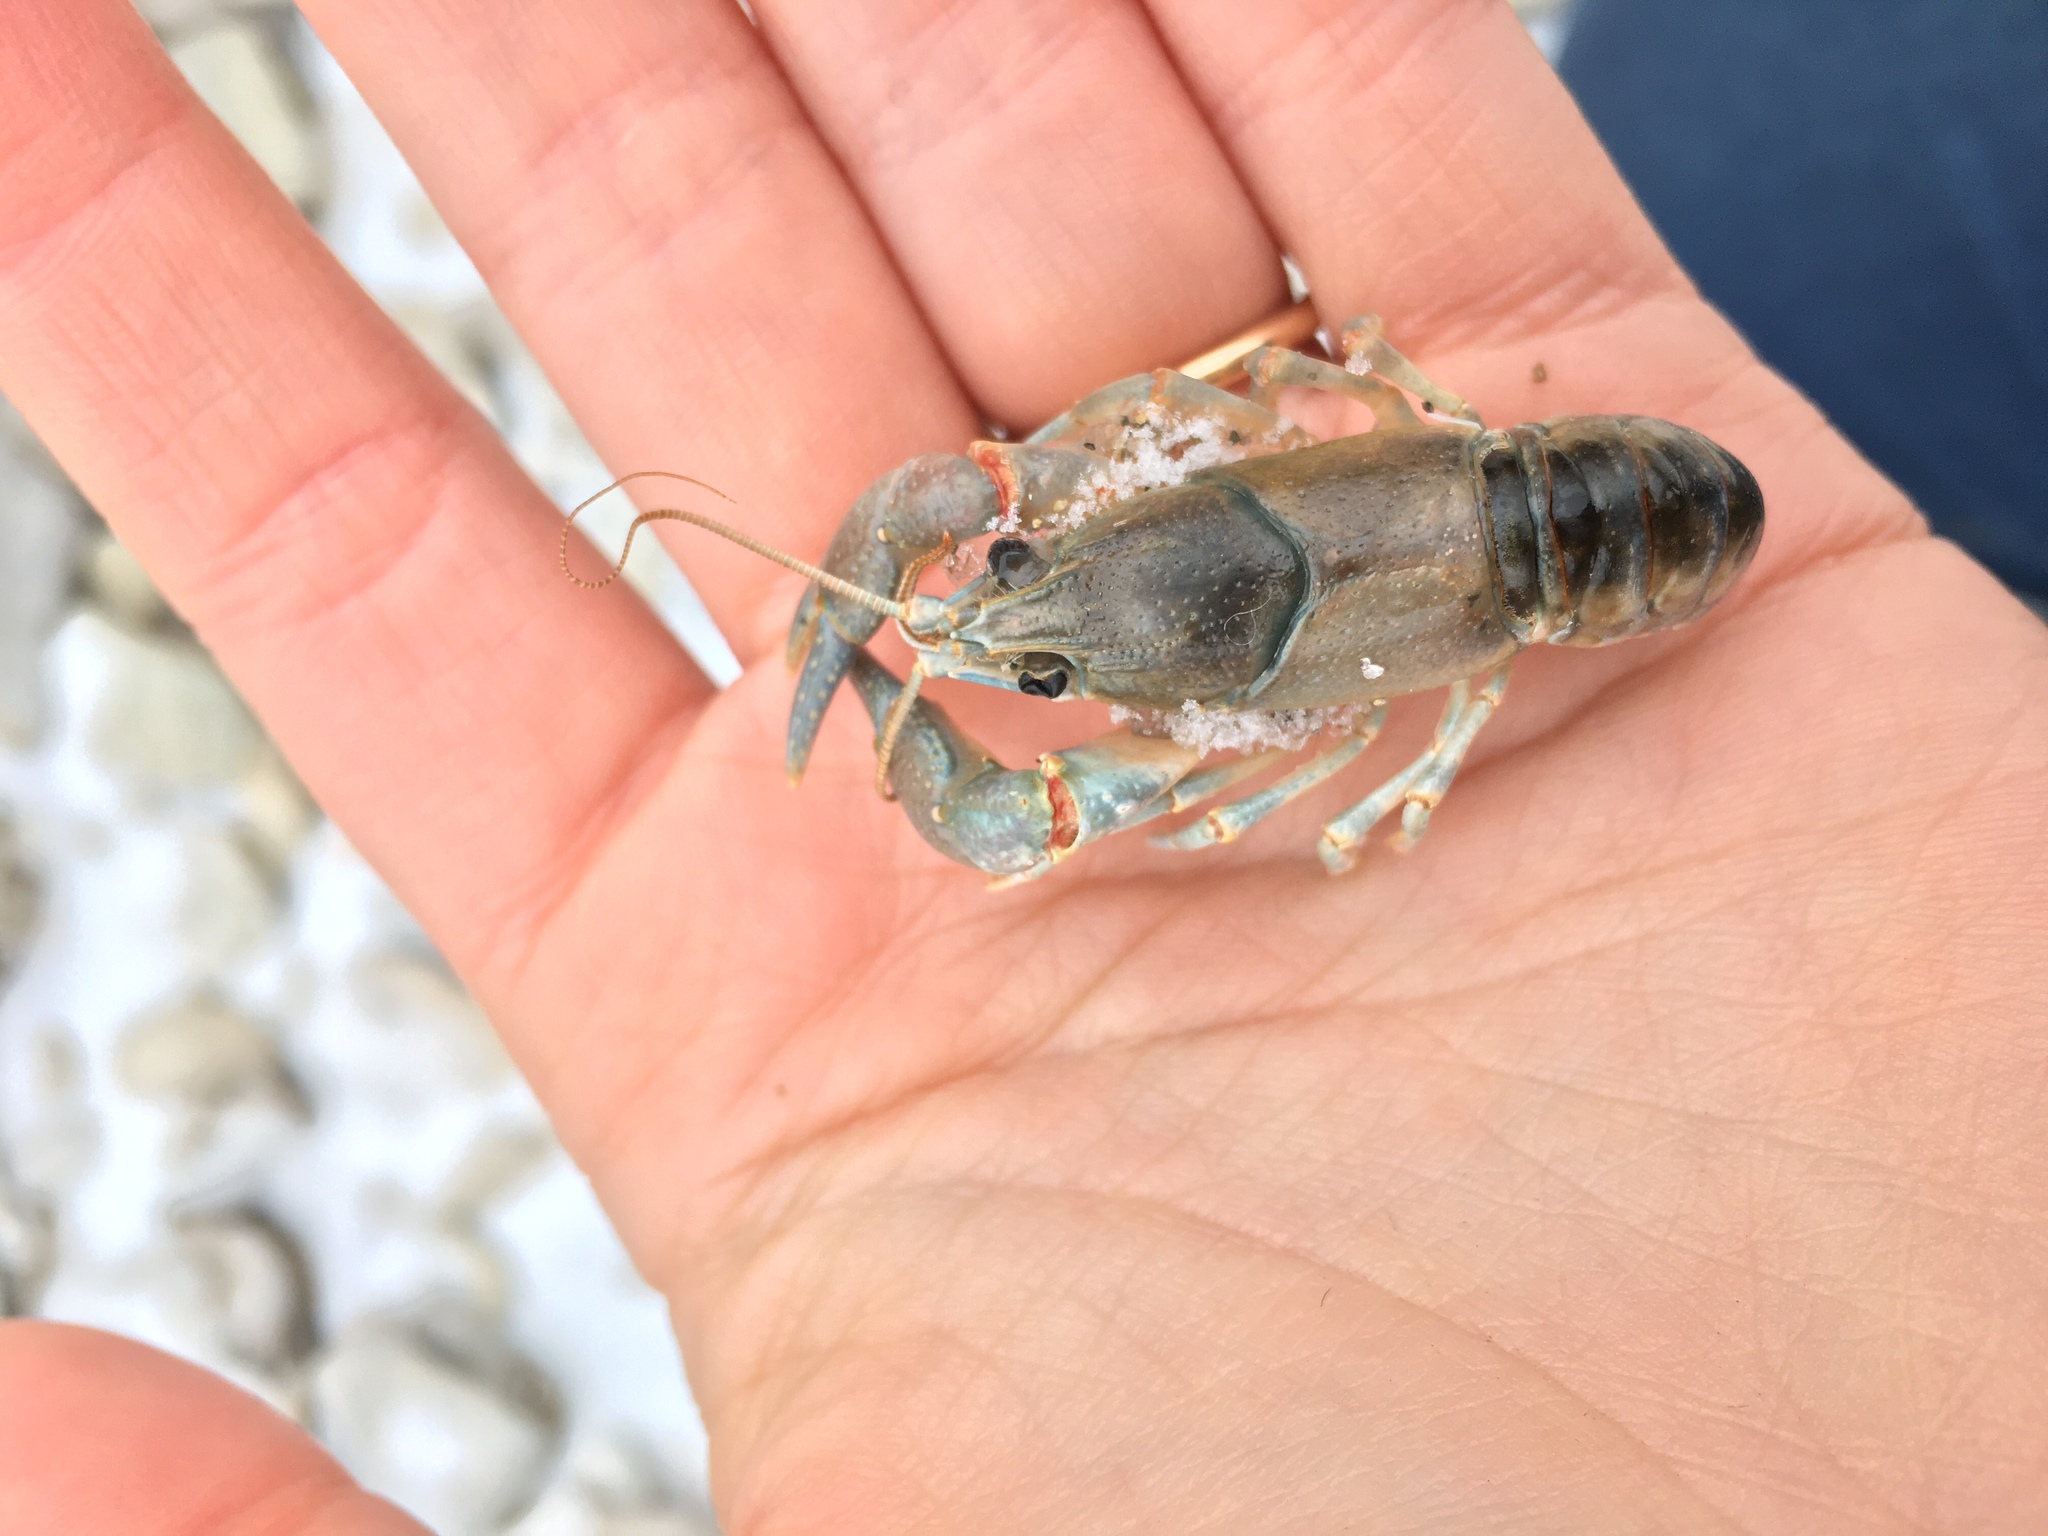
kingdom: Animalia
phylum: Arthropoda
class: Malacostraca
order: Decapoda
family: Cambaridae
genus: Faxonius
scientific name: Faxonius propinquus
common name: Northern clearwater crayfish
